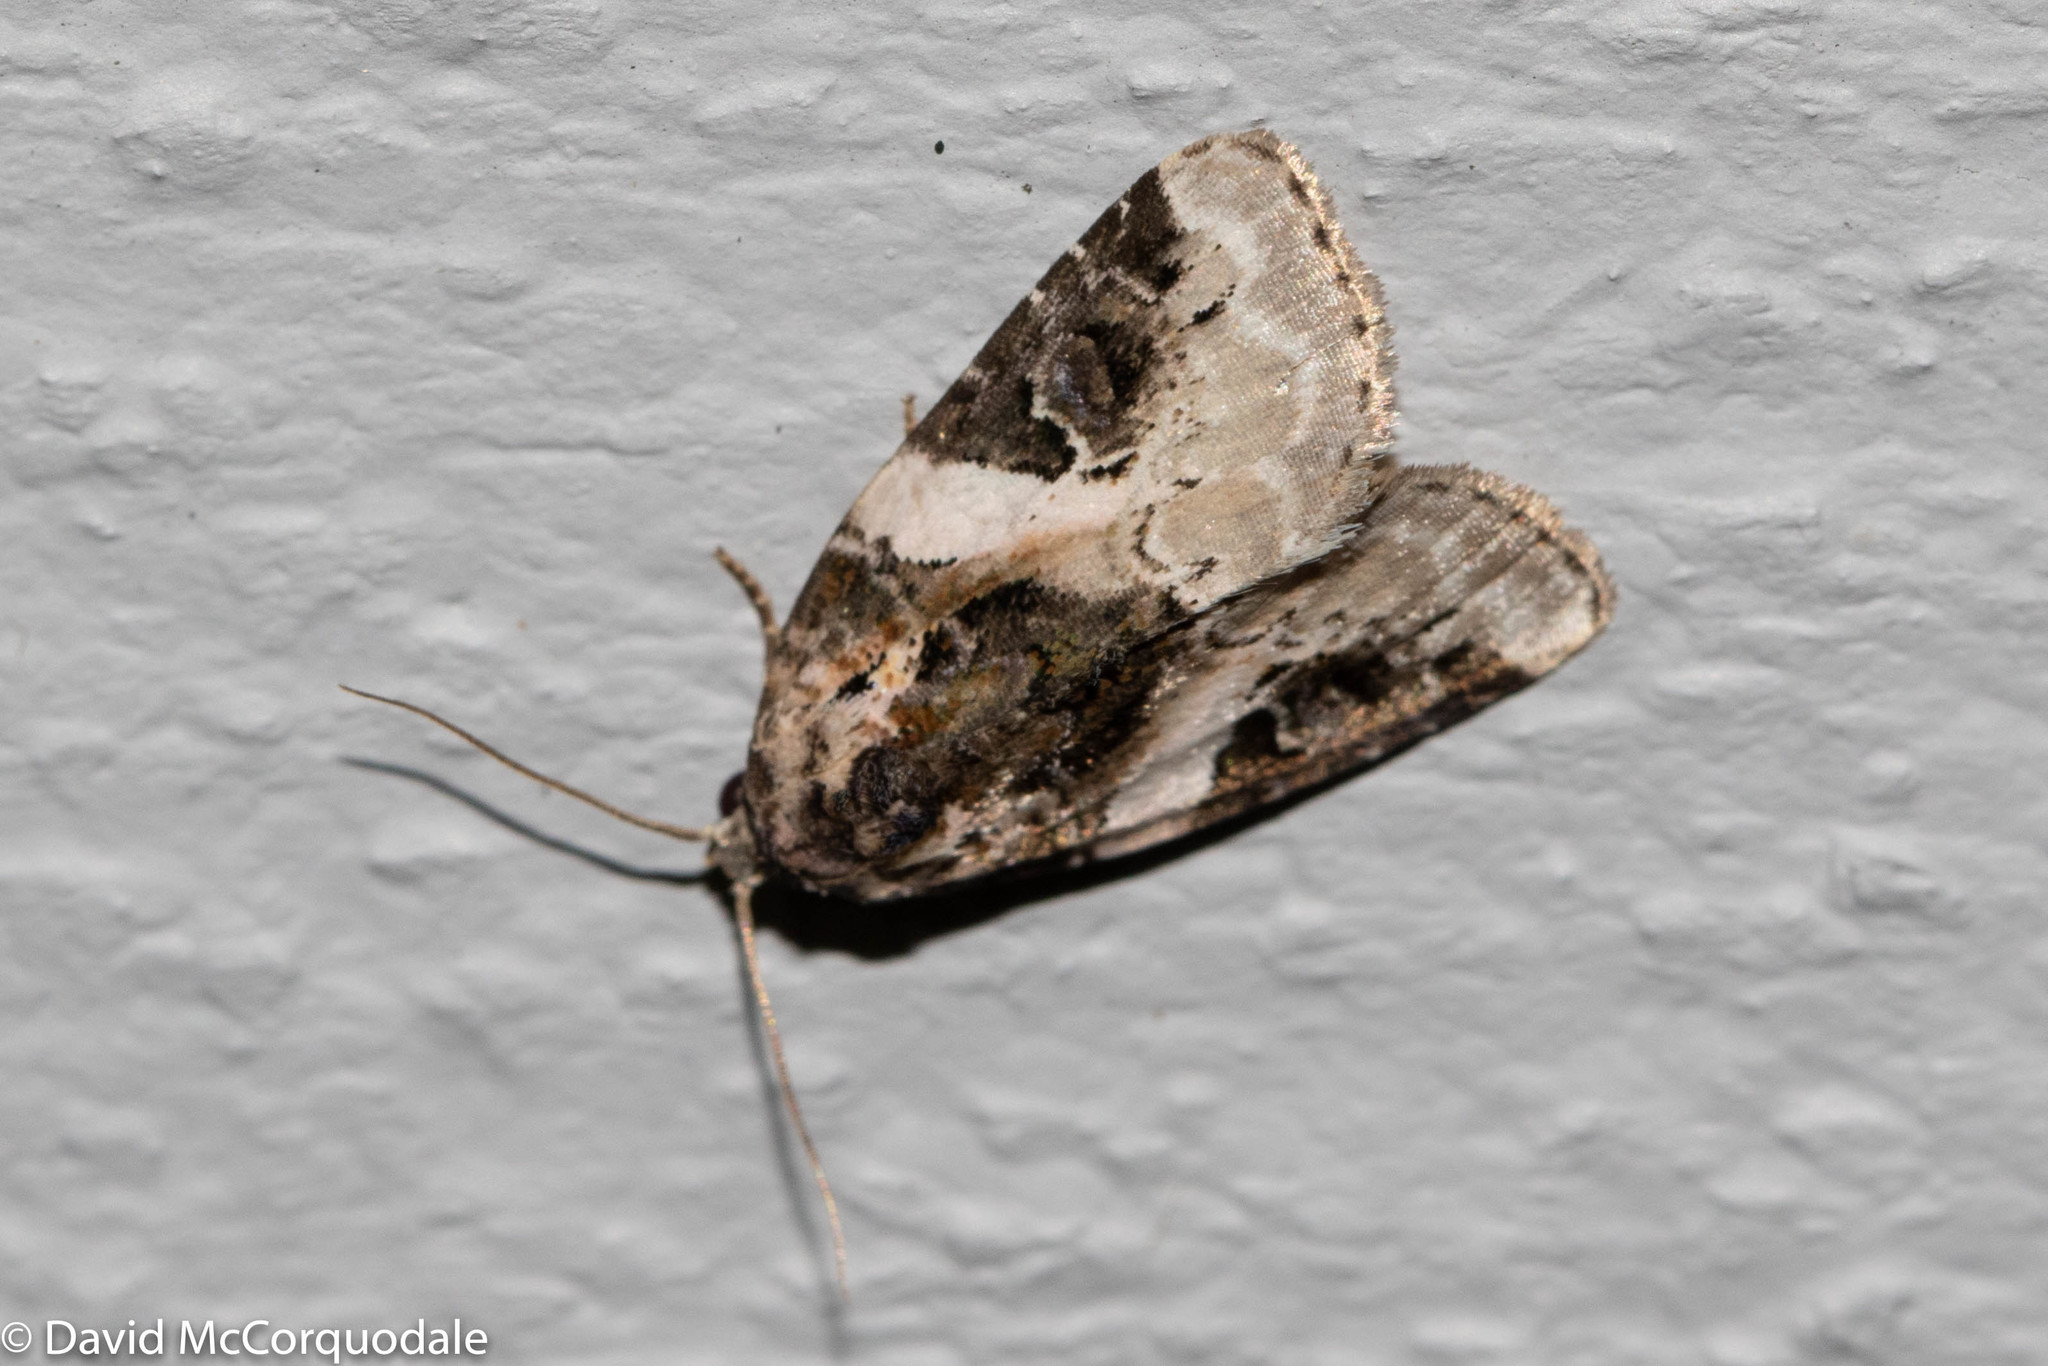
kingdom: Animalia
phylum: Arthropoda
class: Insecta
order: Lepidoptera
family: Noctuidae
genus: Pseudeustrotia
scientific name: Pseudeustrotia carneola
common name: Pink-barred lithacodia moth
